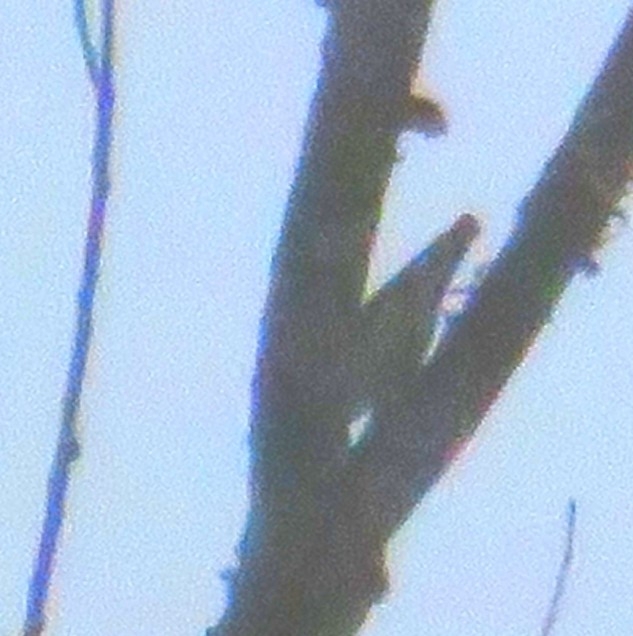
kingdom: Animalia
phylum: Chordata
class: Aves
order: Passeriformes
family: Sittidae
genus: Sitta
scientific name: Sitta carolinensis
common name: White-breasted nuthatch
